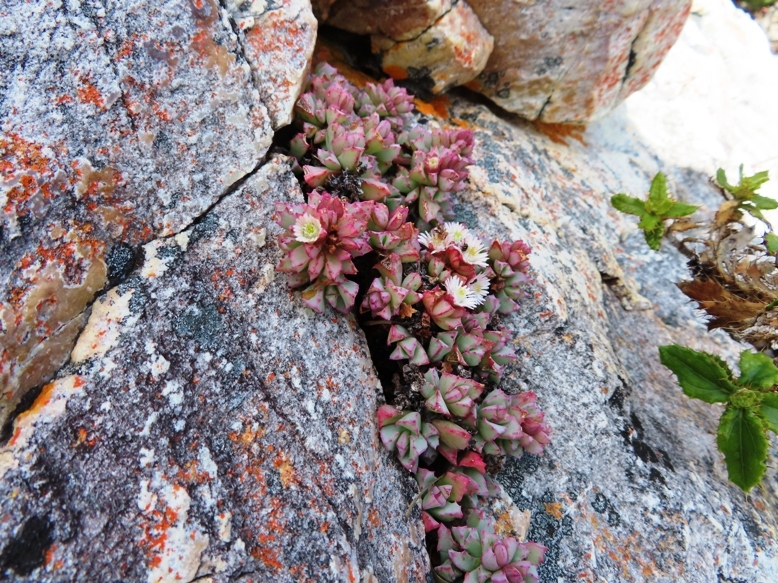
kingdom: Plantae
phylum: Tracheophyta
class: Magnoliopsida
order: Caryophyllales
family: Aizoaceae
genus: Oscularia
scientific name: Oscularia deltoides
